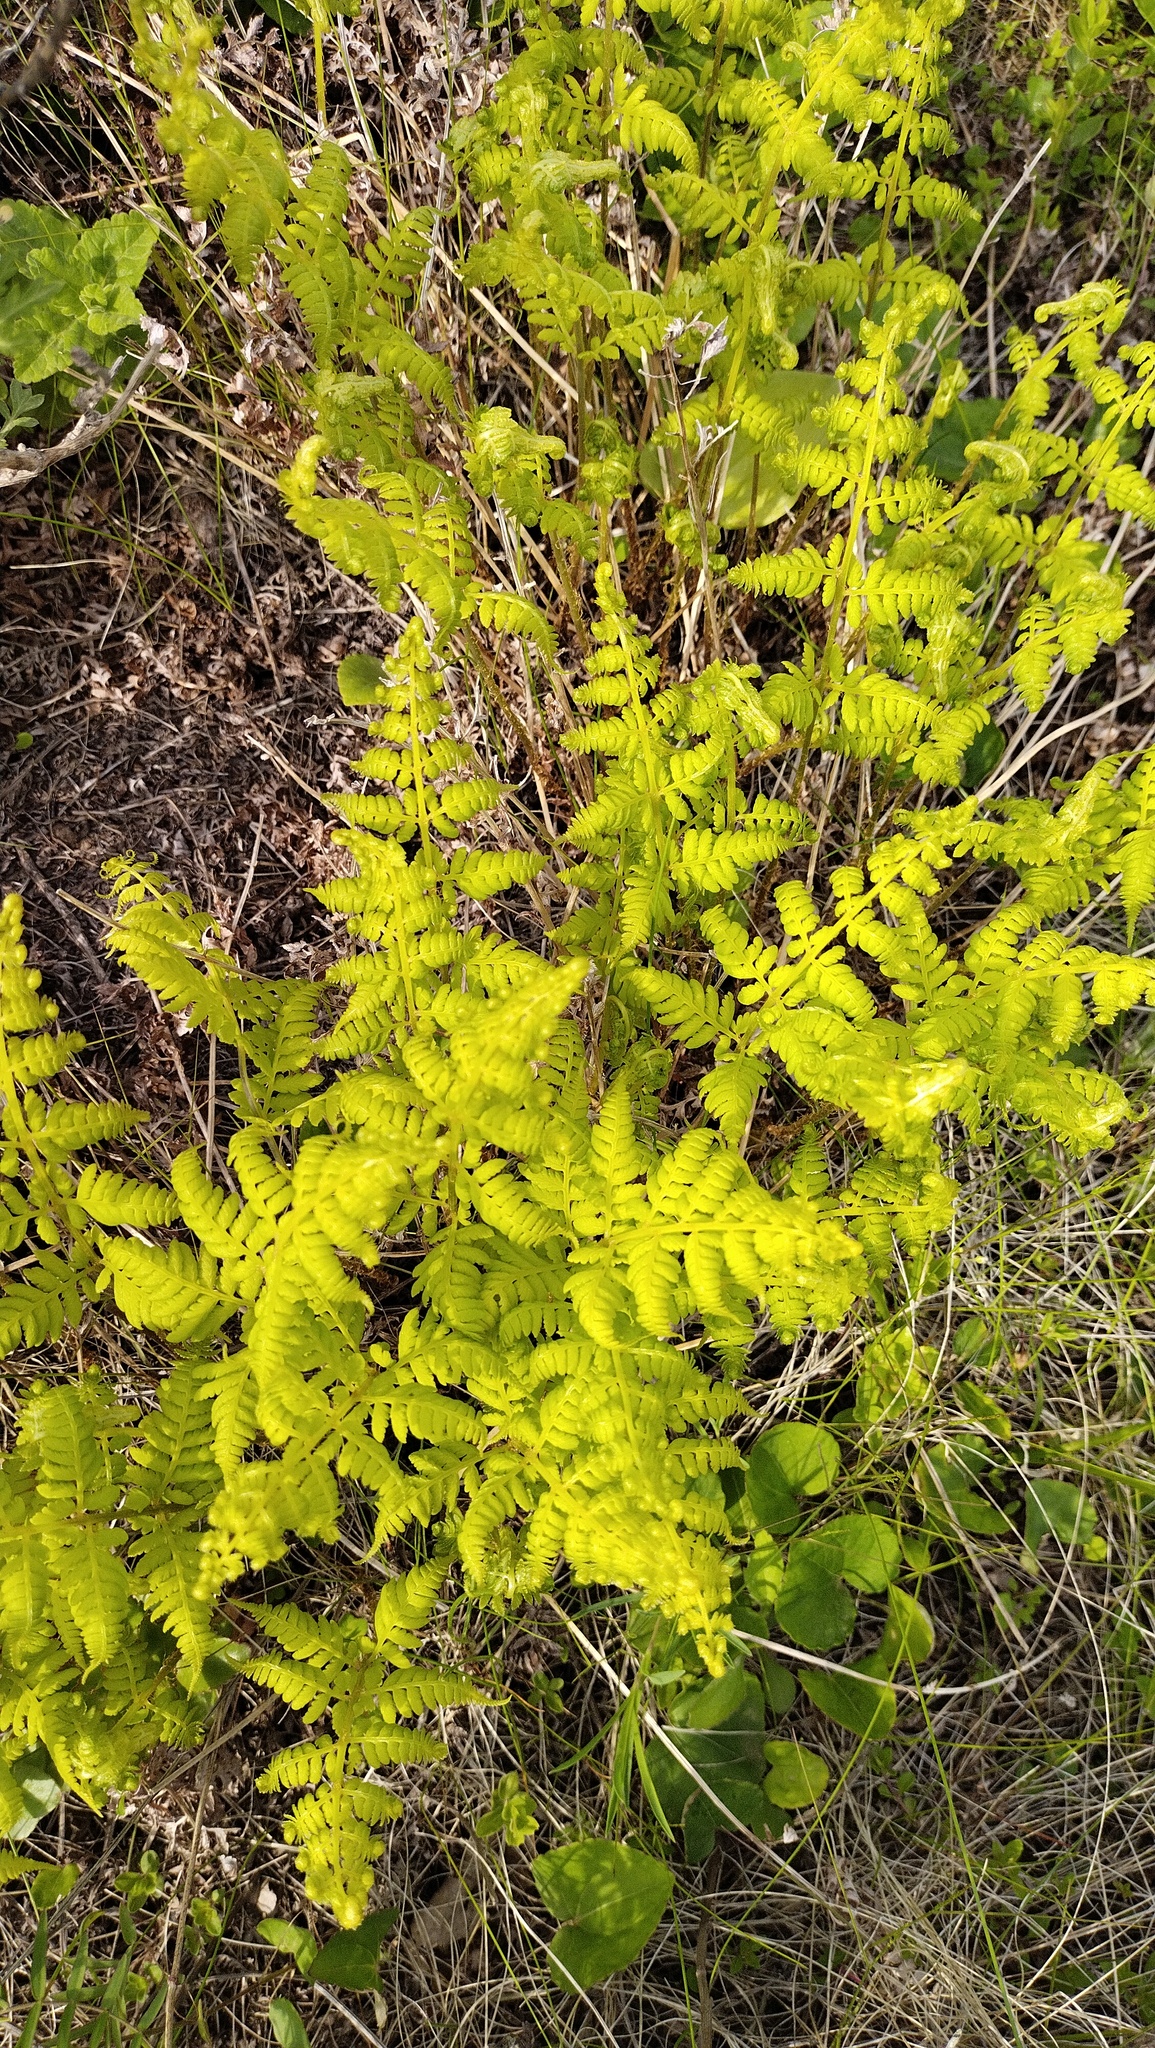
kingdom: Plantae
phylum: Tracheophyta
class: Polypodiopsida
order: Polypodiales
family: Athyriaceae
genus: Athyrium
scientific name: Athyrium yokoscense
